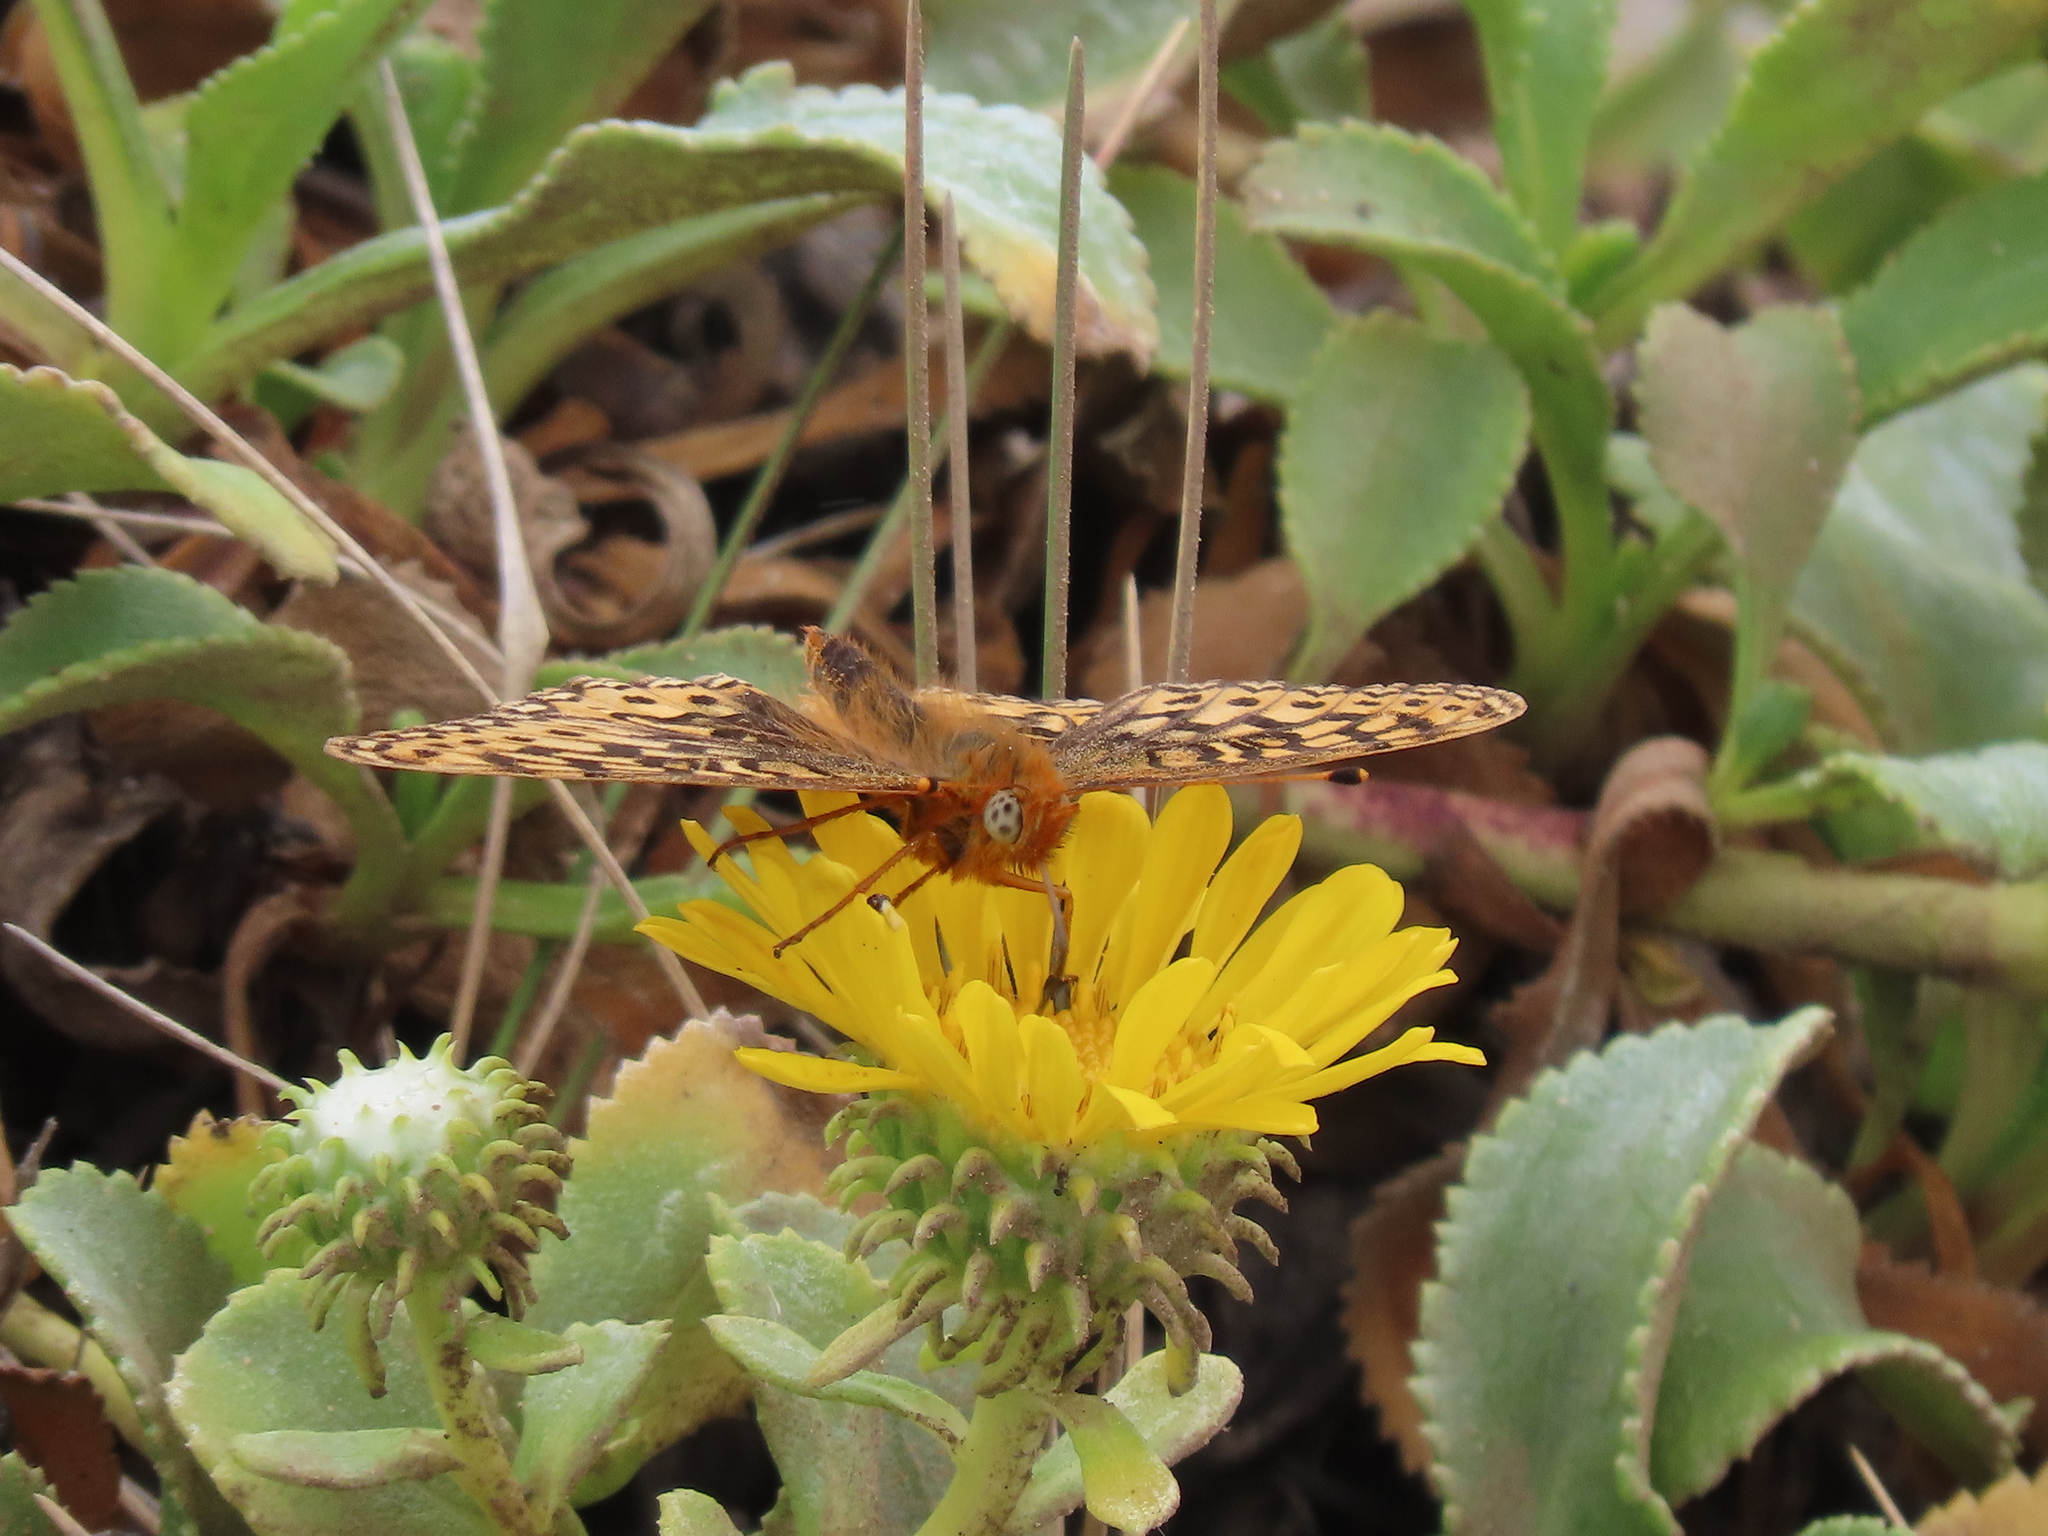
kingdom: Animalia
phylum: Arthropoda
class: Insecta
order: Lepidoptera
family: Nymphalidae
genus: Speyeria
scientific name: Speyeria zerene
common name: Zerene fritillary
